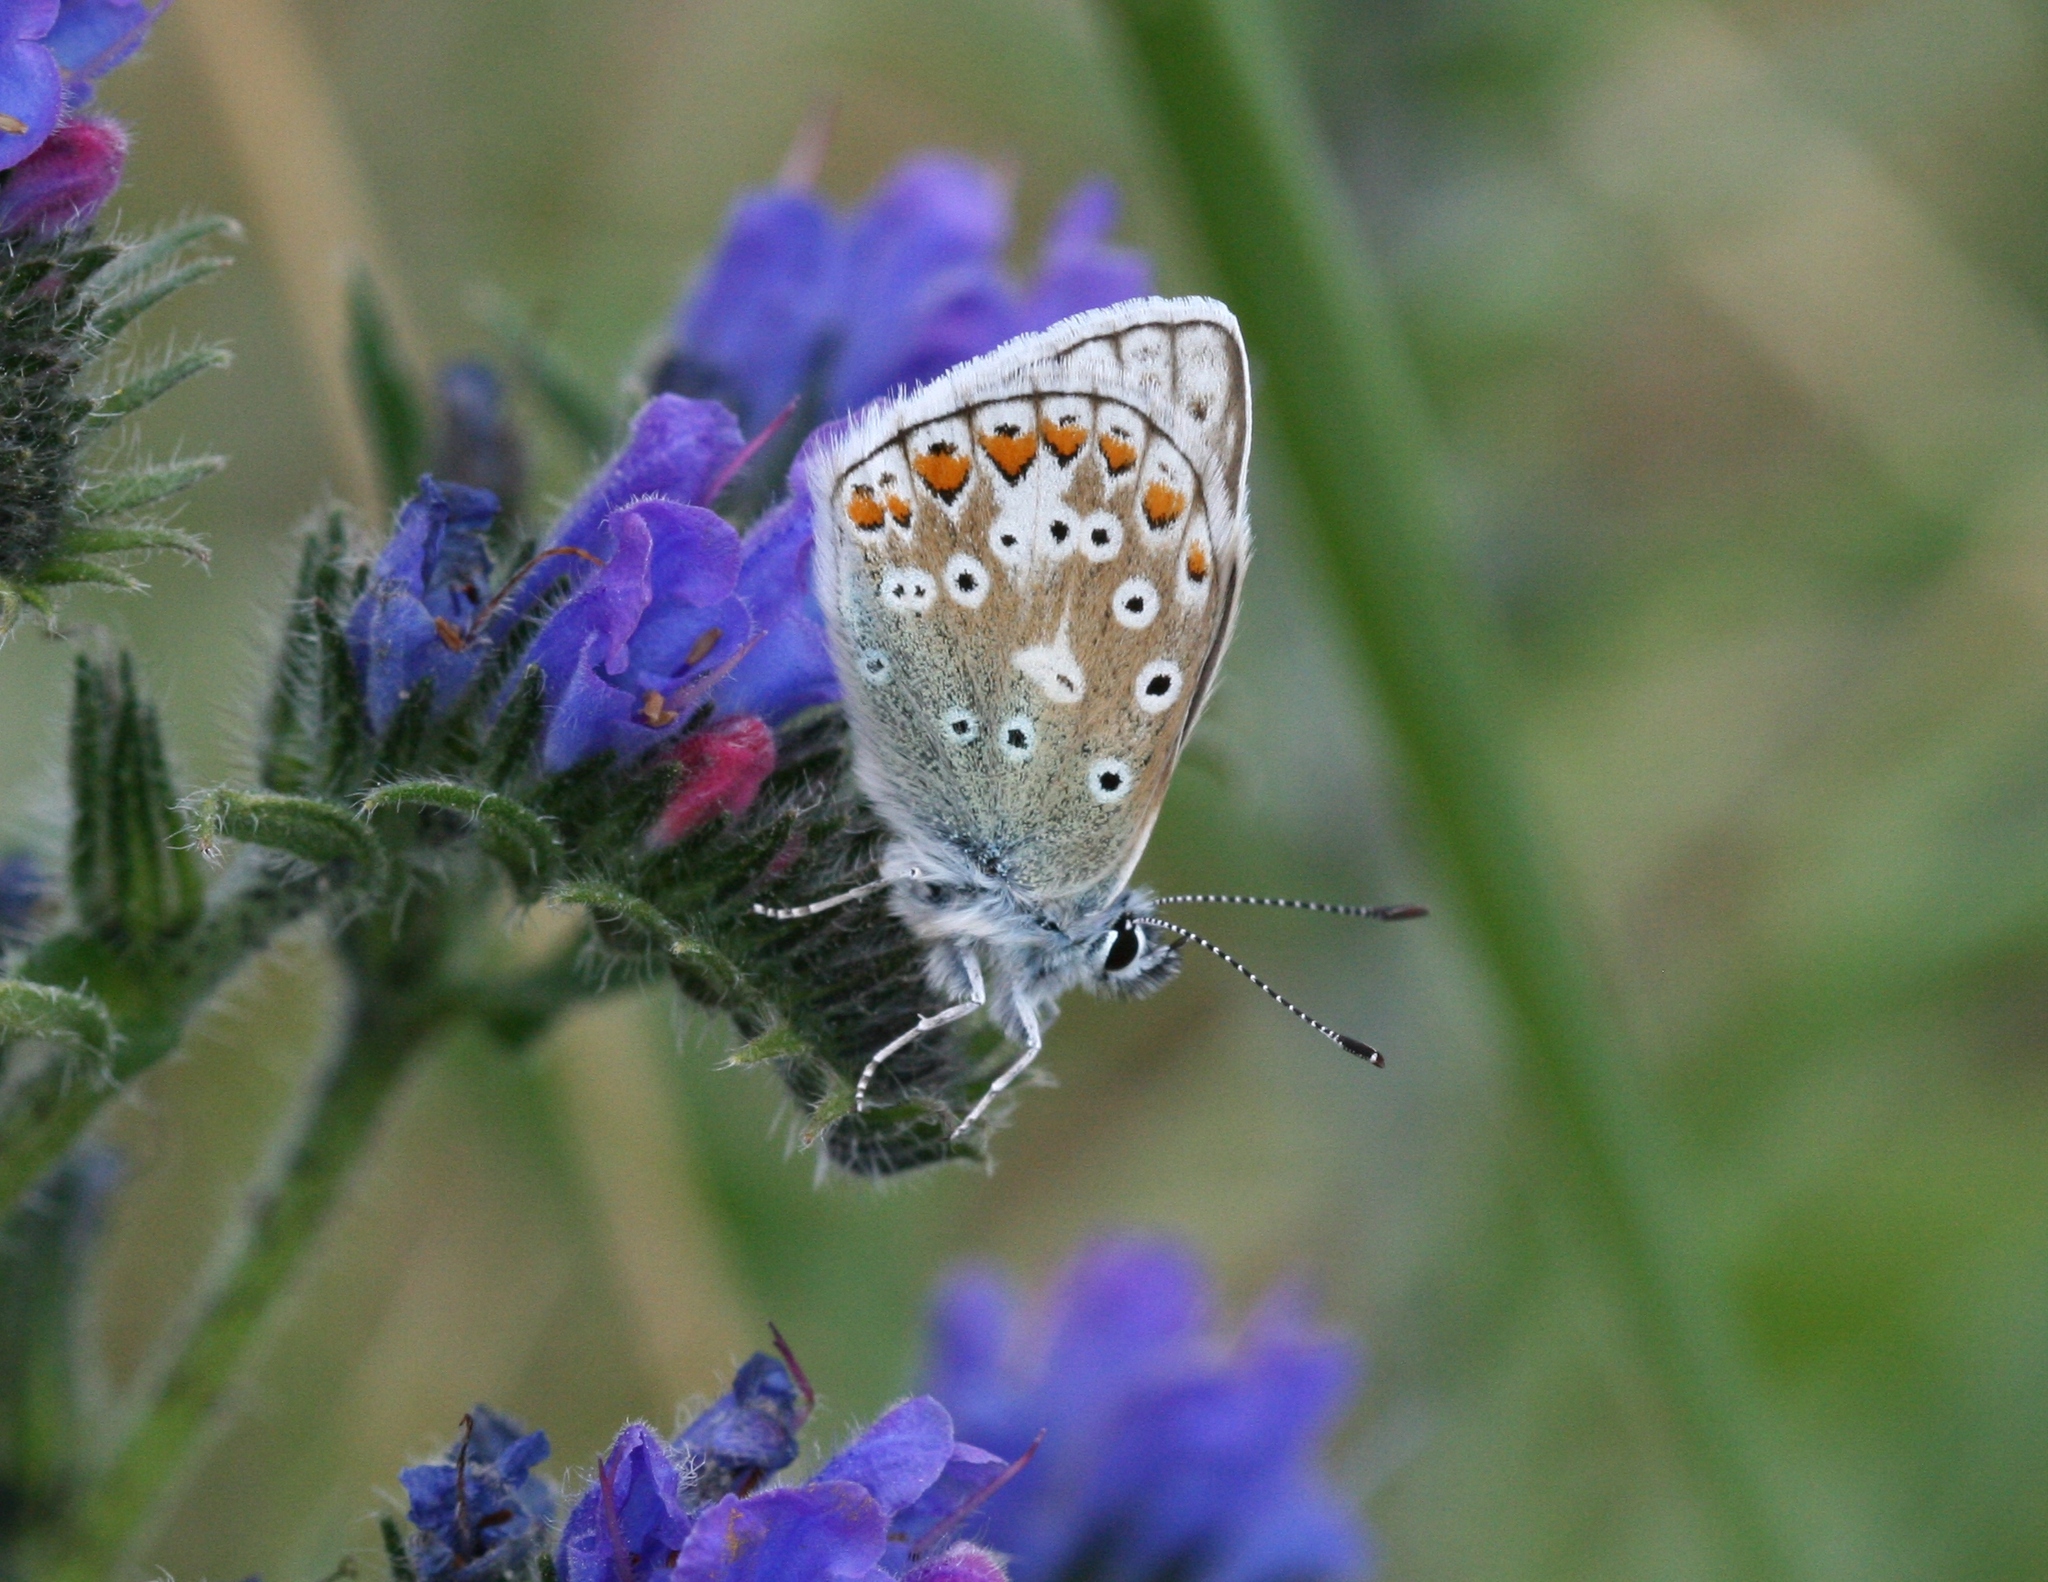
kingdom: Animalia
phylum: Arthropoda
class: Insecta
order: Lepidoptera
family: Lycaenidae
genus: Polyommatus
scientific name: Polyommatus icarus
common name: Common blue
